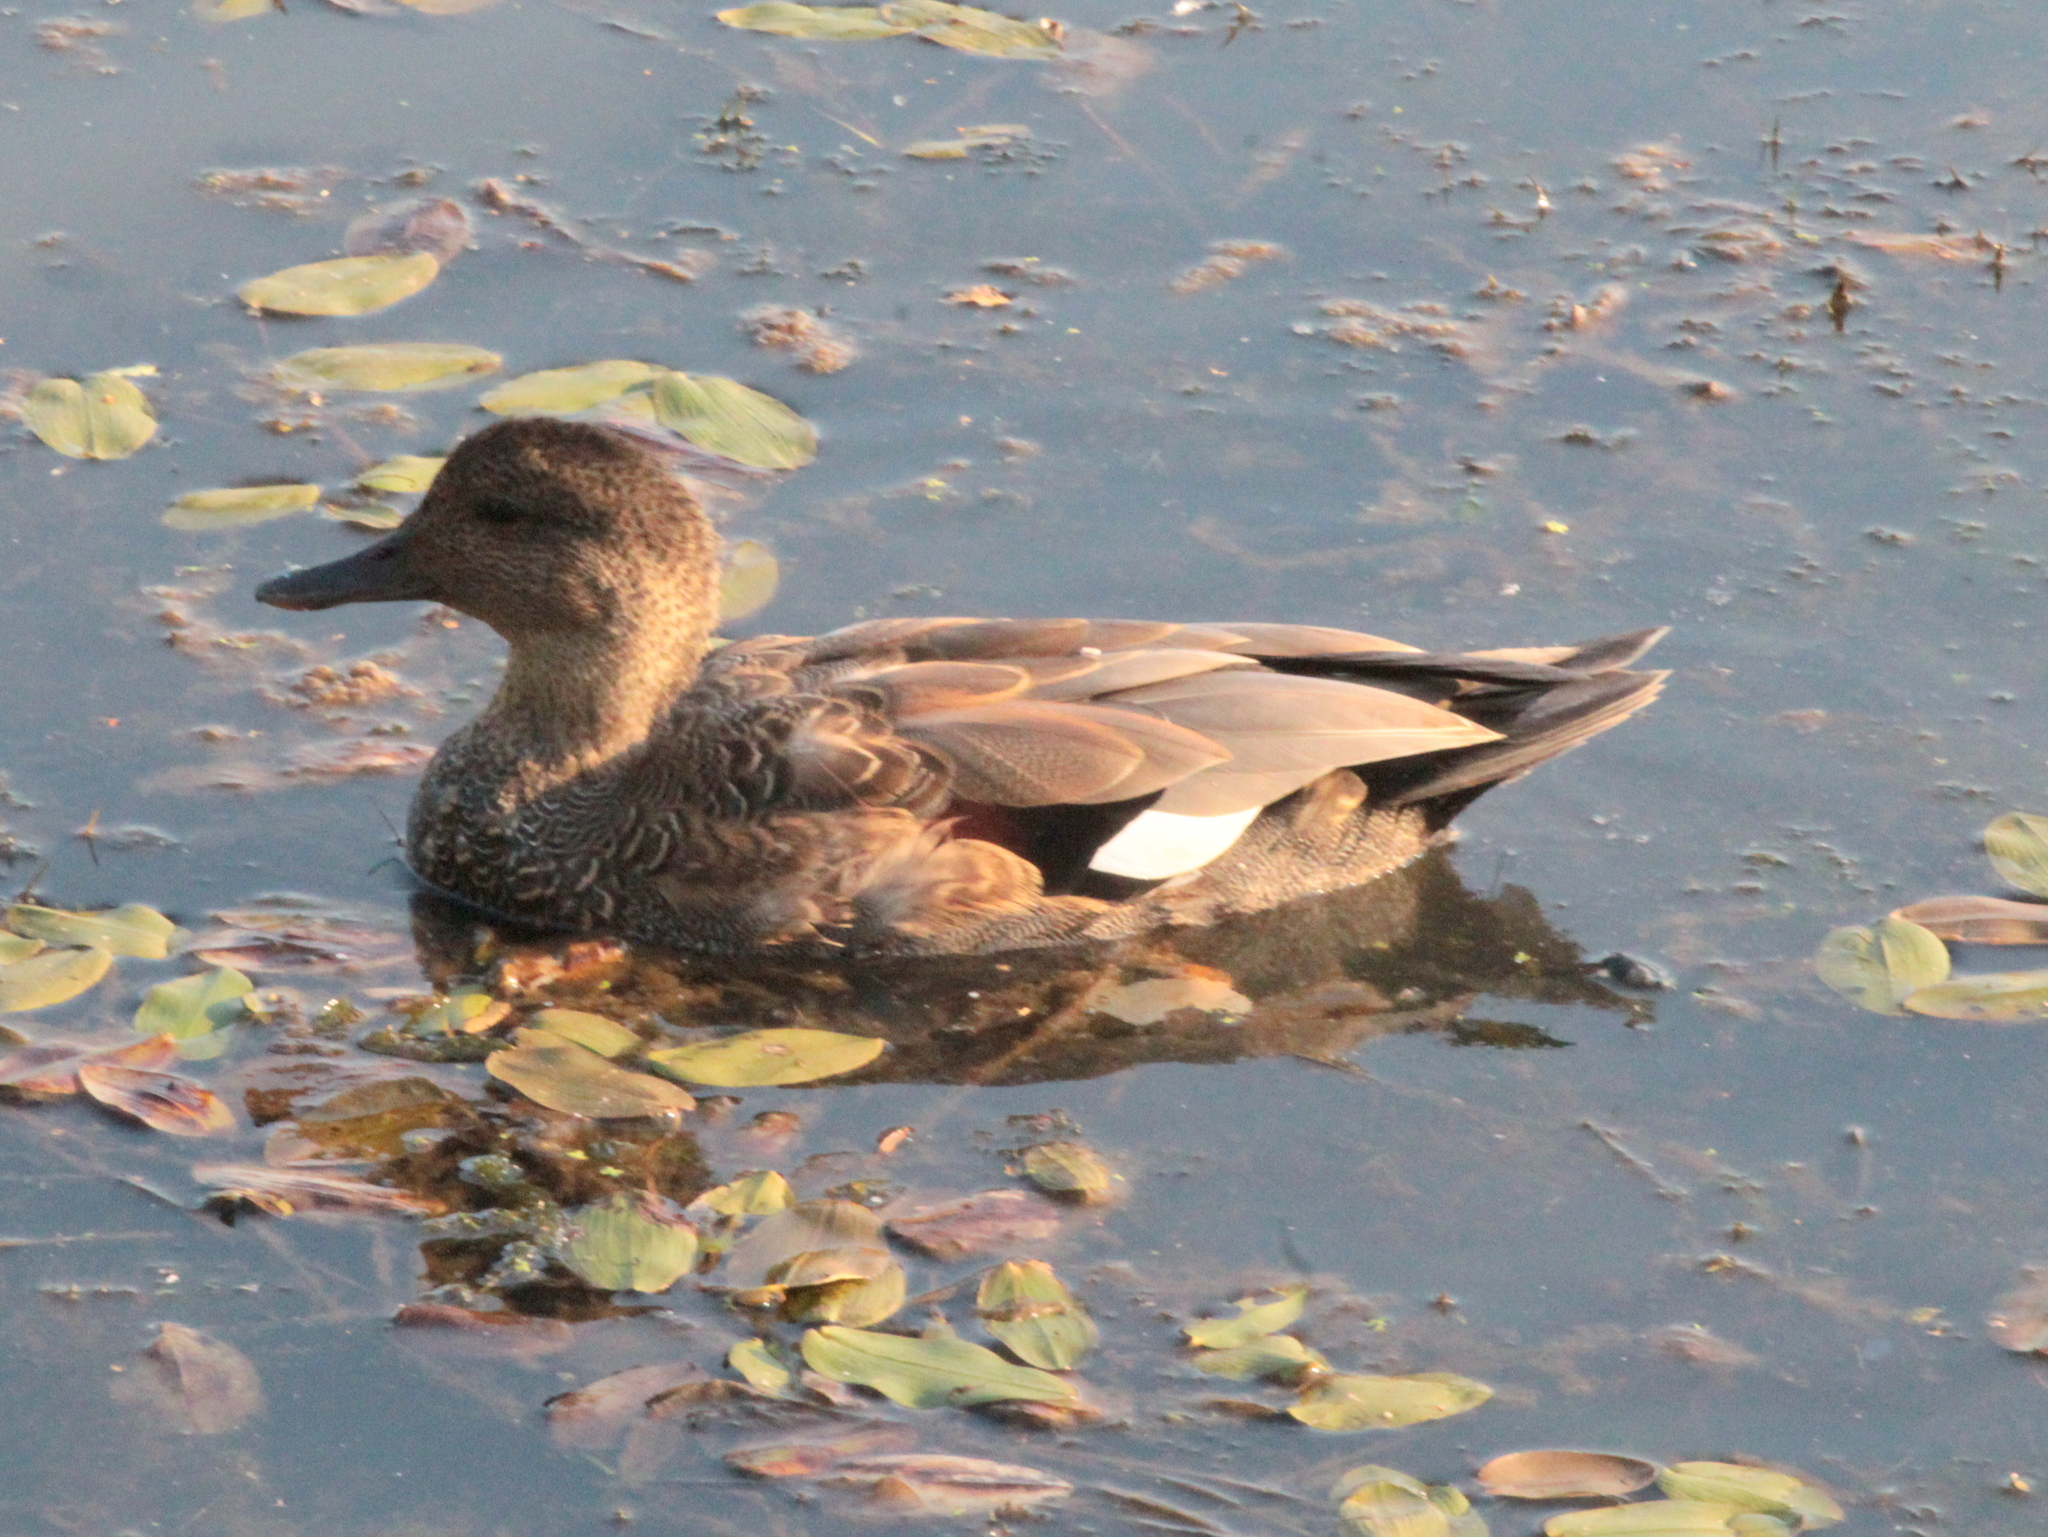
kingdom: Animalia
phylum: Chordata
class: Aves
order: Anseriformes
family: Anatidae
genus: Mareca
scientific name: Mareca strepera
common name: Gadwall
